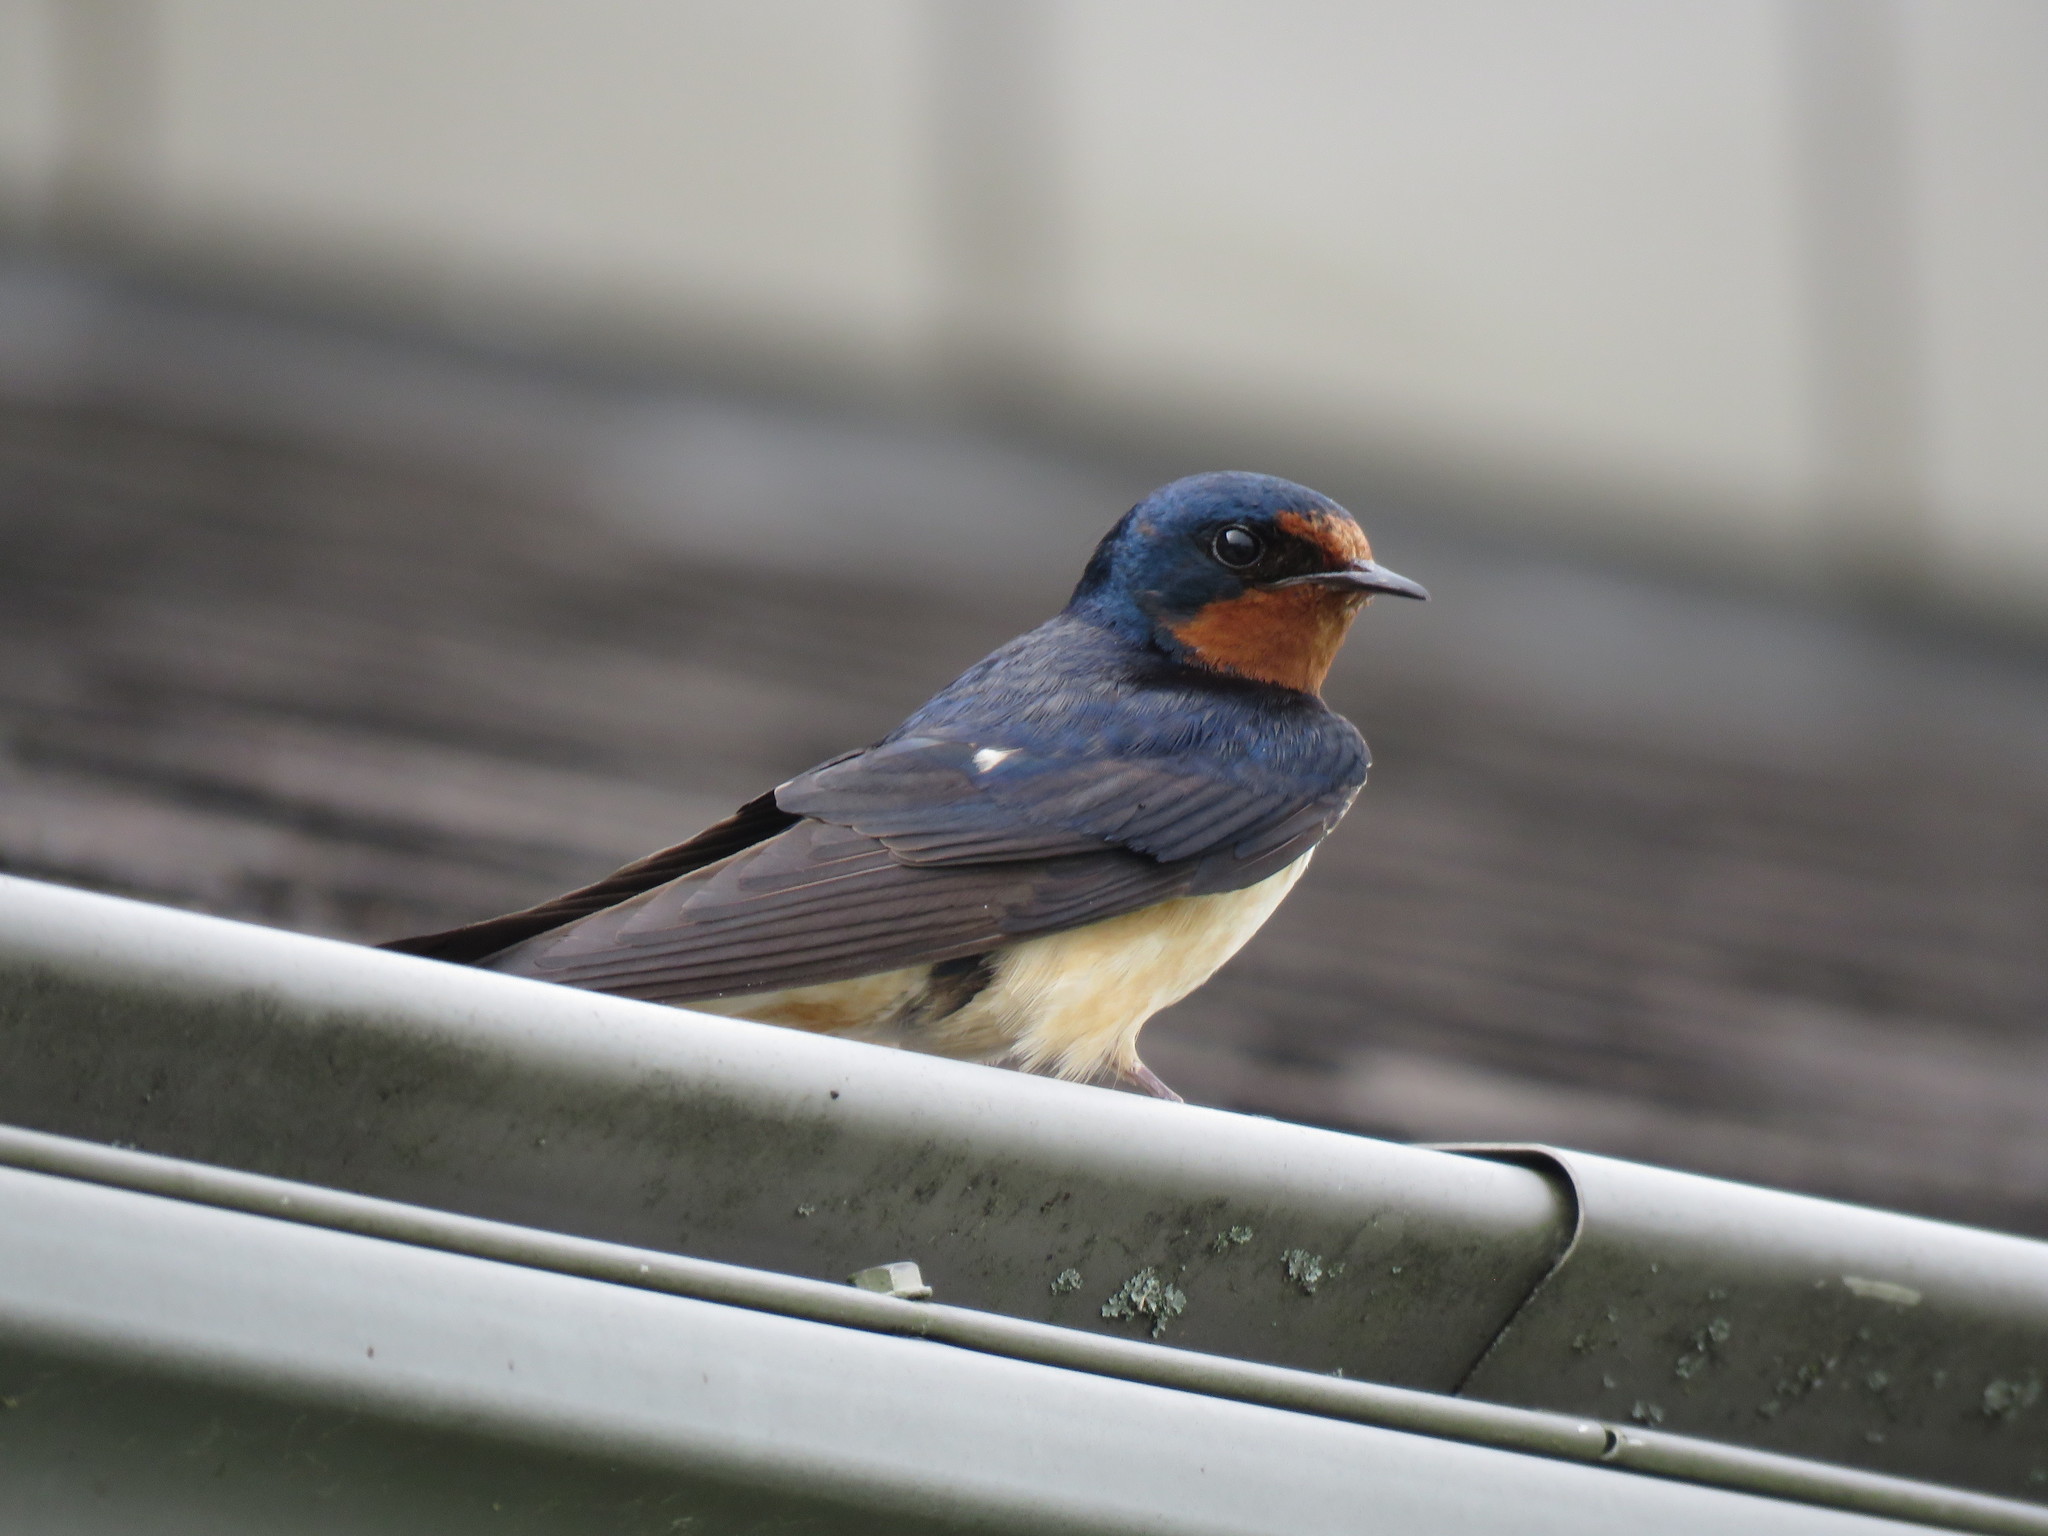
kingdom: Animalia
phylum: Chordata
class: Aves
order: Passeriformes
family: Hirundinidae
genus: Hirundo
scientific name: Hirundo rustica
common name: Barn swallow
